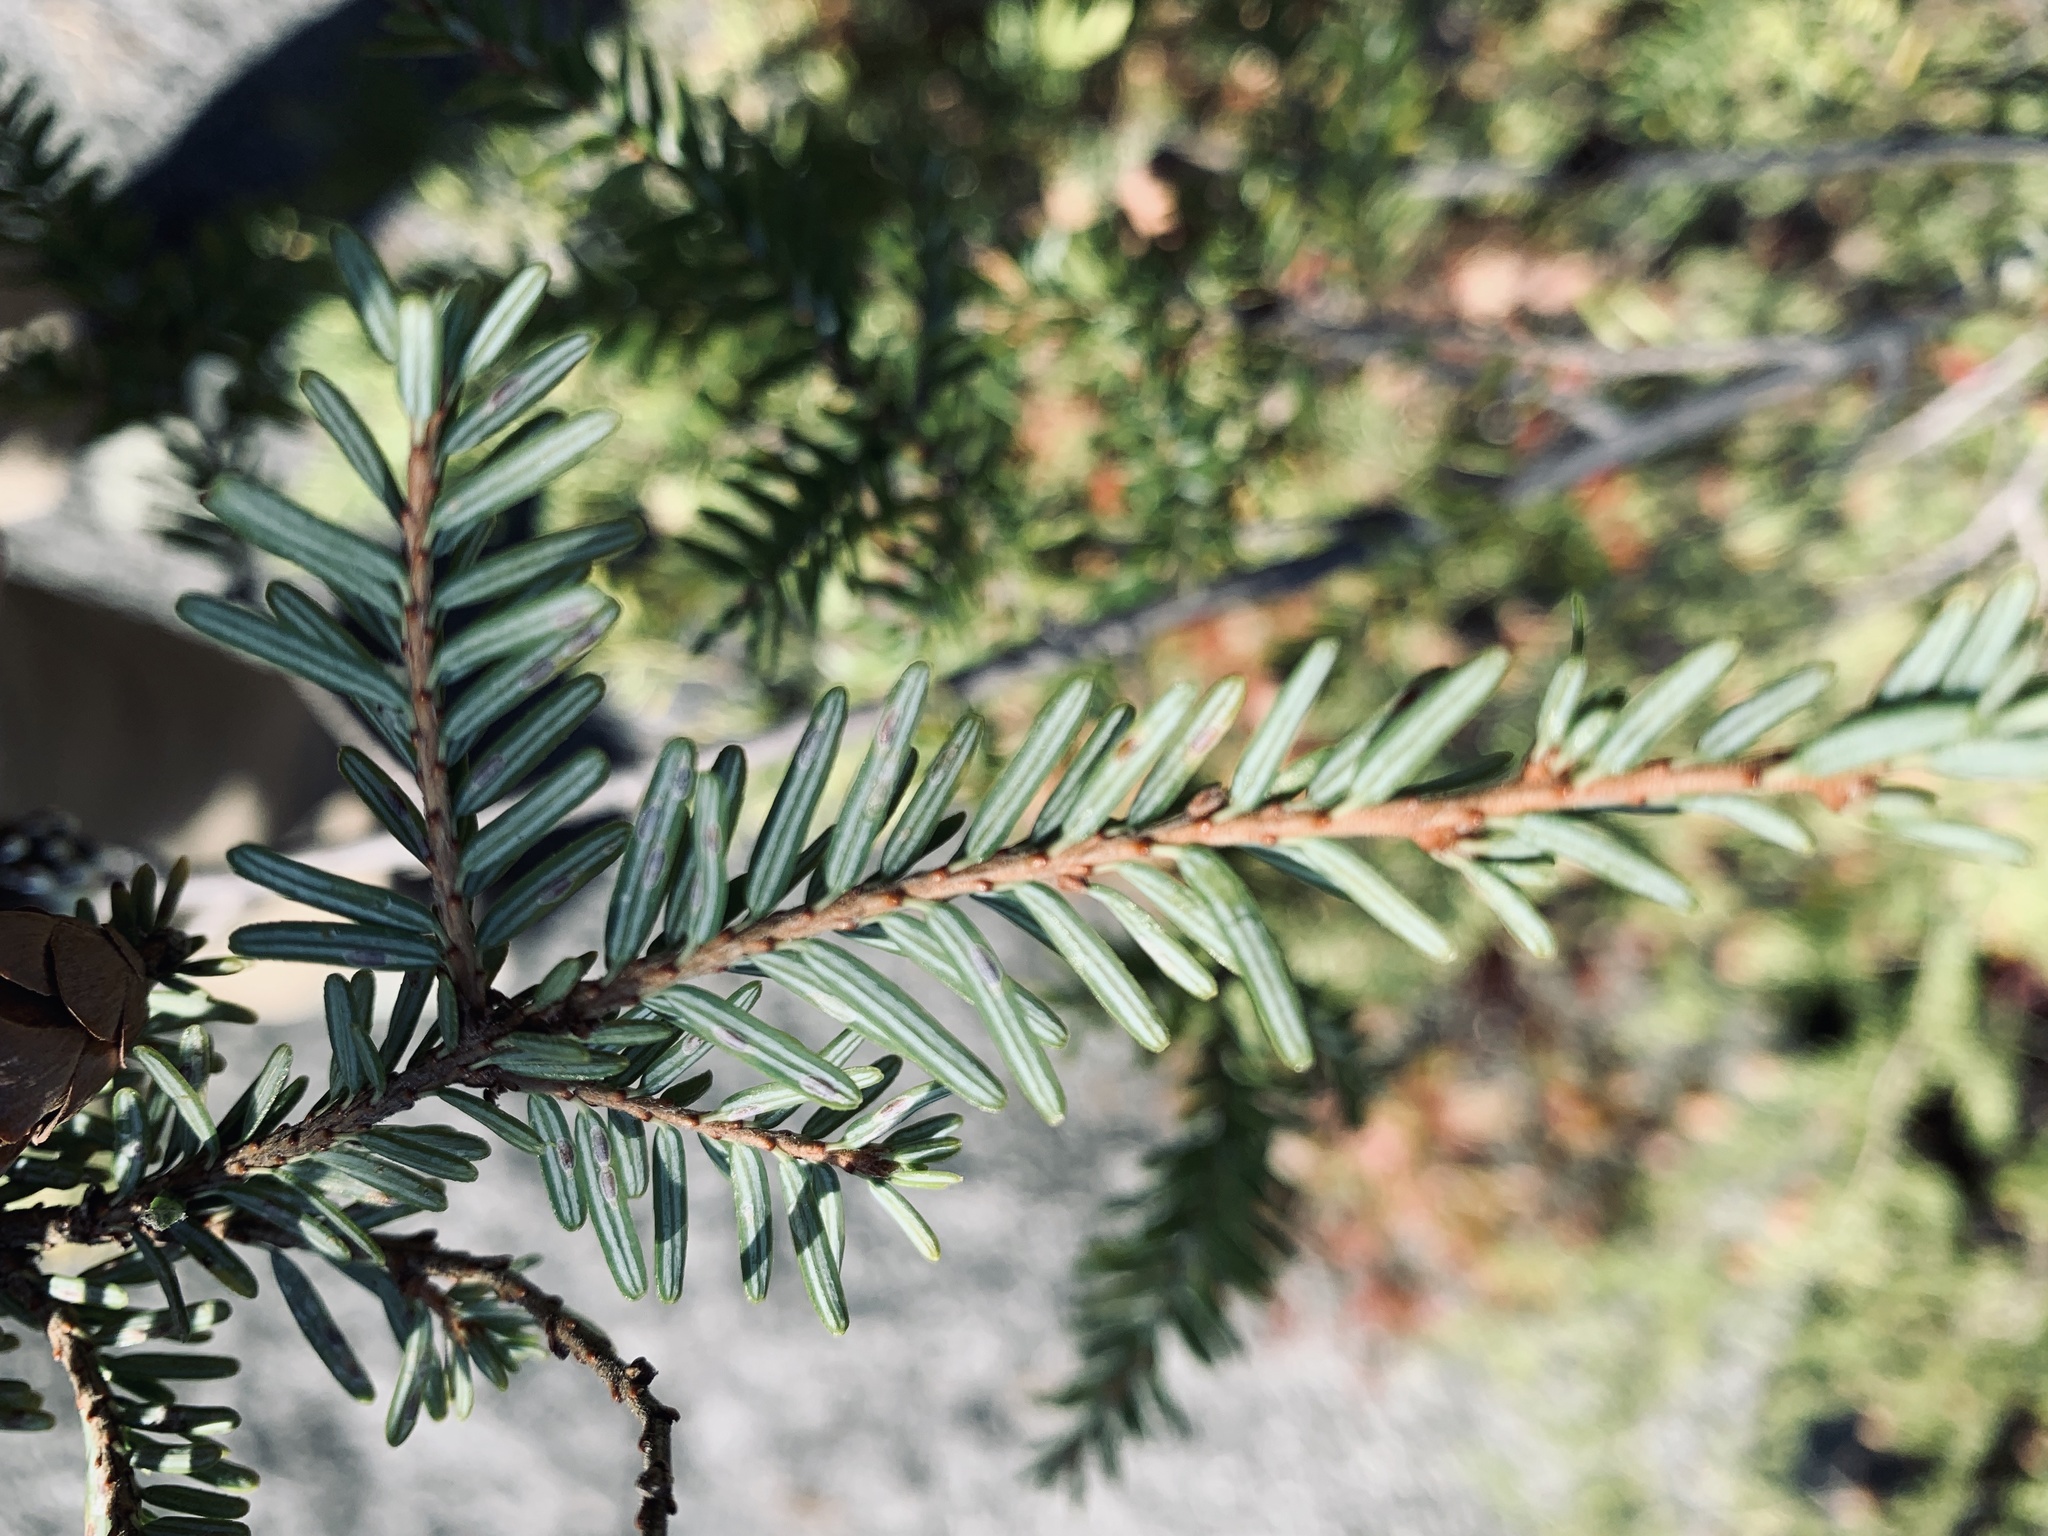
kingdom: Plantae
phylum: Tracheophyta
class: Pinopsida
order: Pinales
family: Pinaceae
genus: Tsuga
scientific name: Tsuga canadensis
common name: Eastern hemlock
